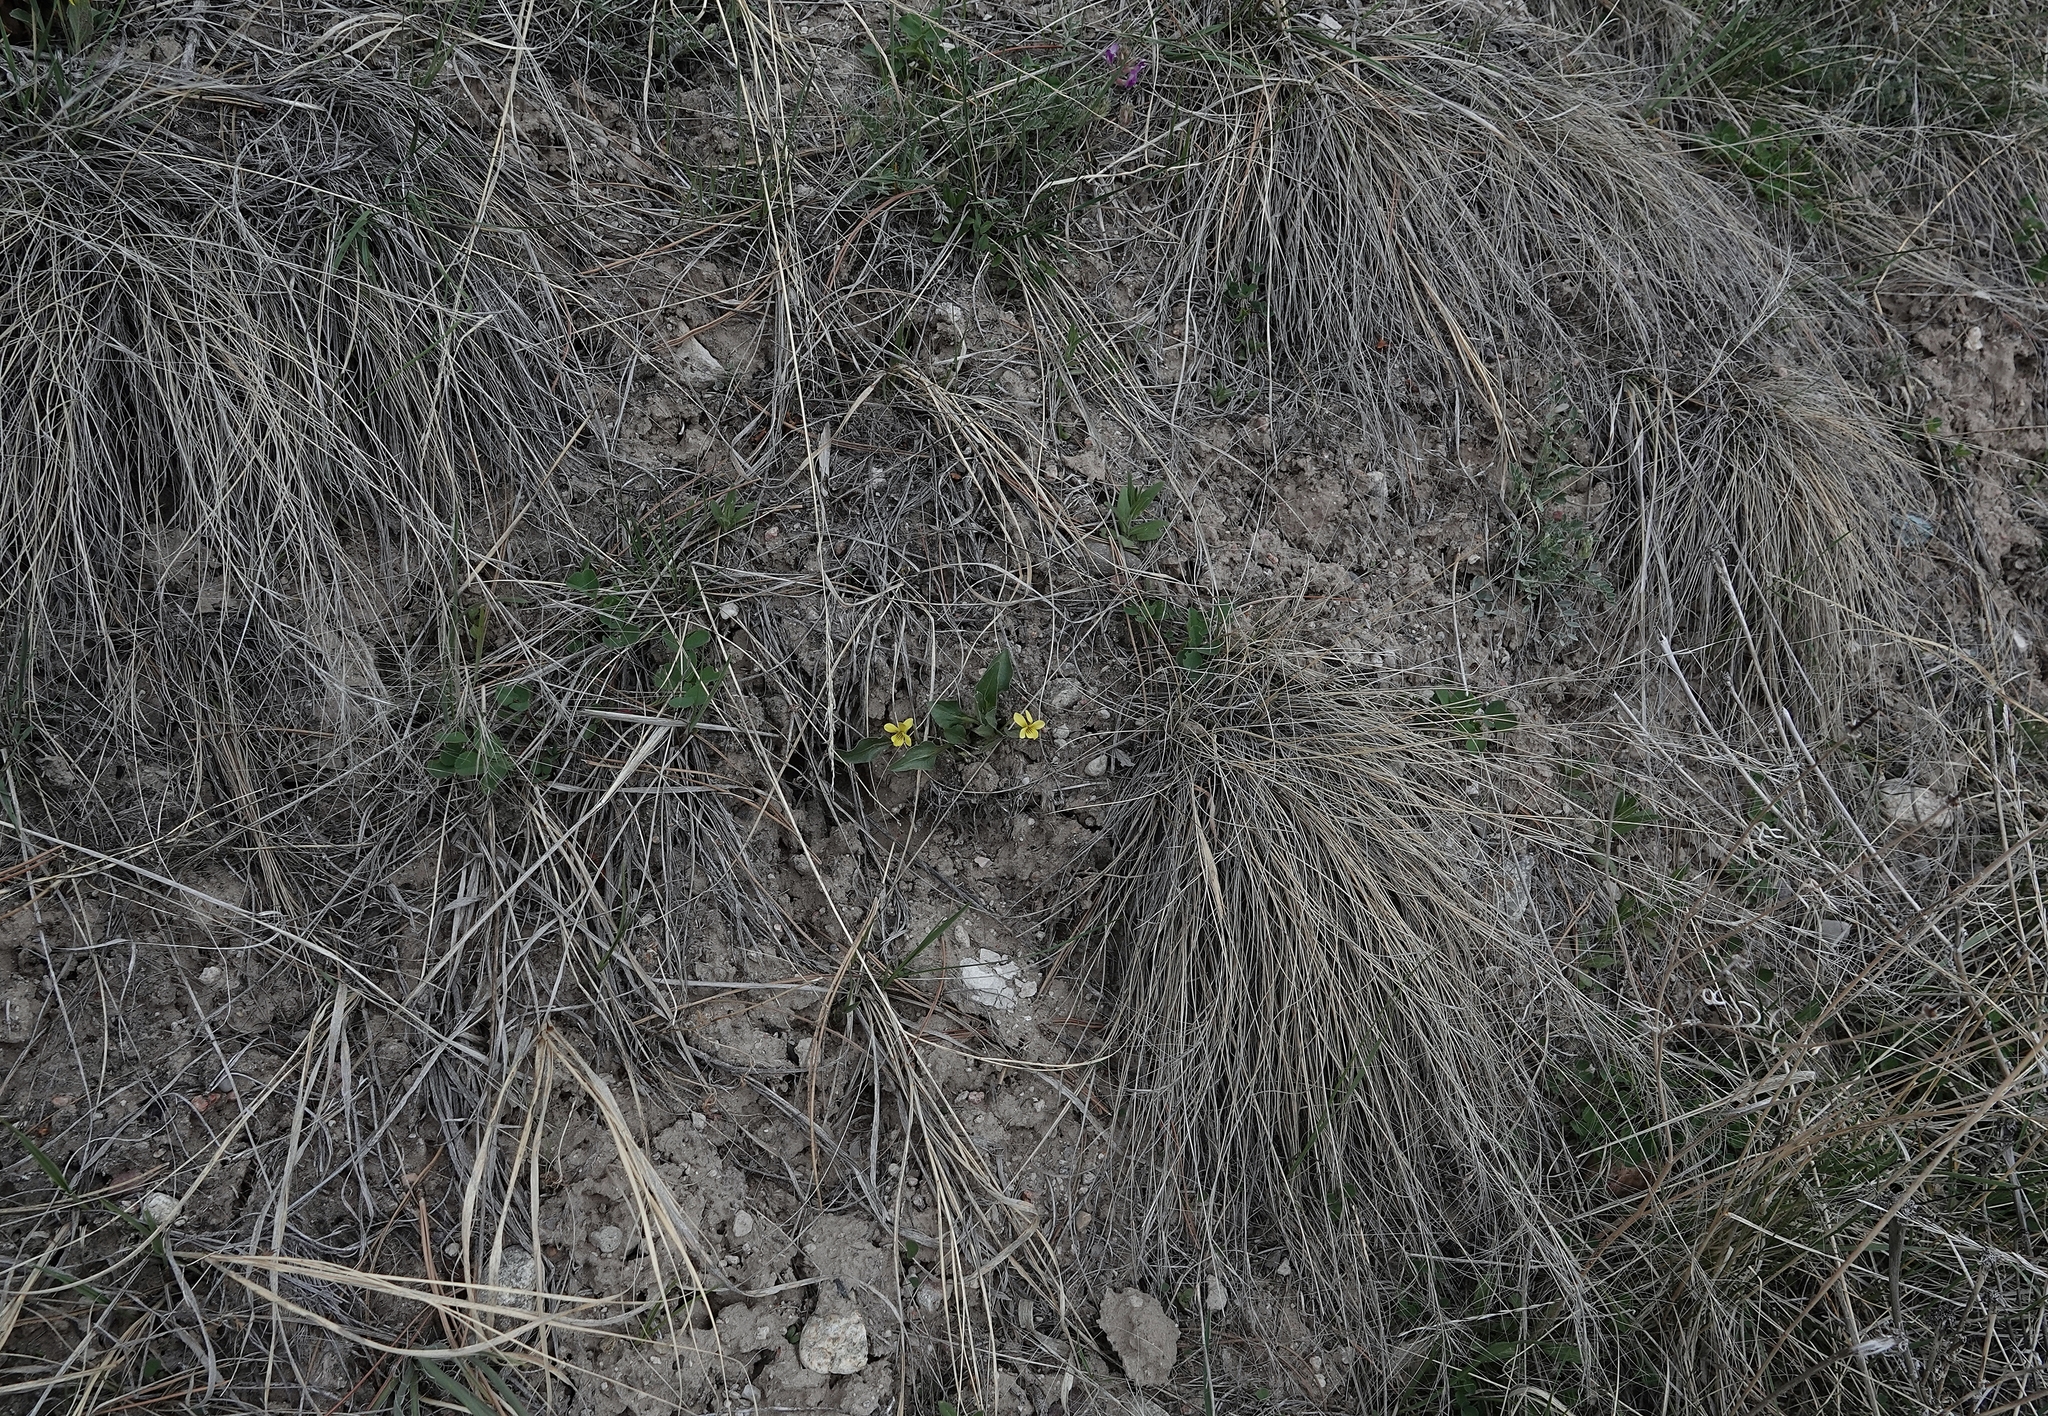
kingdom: Plantae
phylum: Tracheophyta
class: Magnoliopsida
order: Malpighiales
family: Violaceae
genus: Viola
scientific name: Viola nuttallii
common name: Yellow prairie violet
